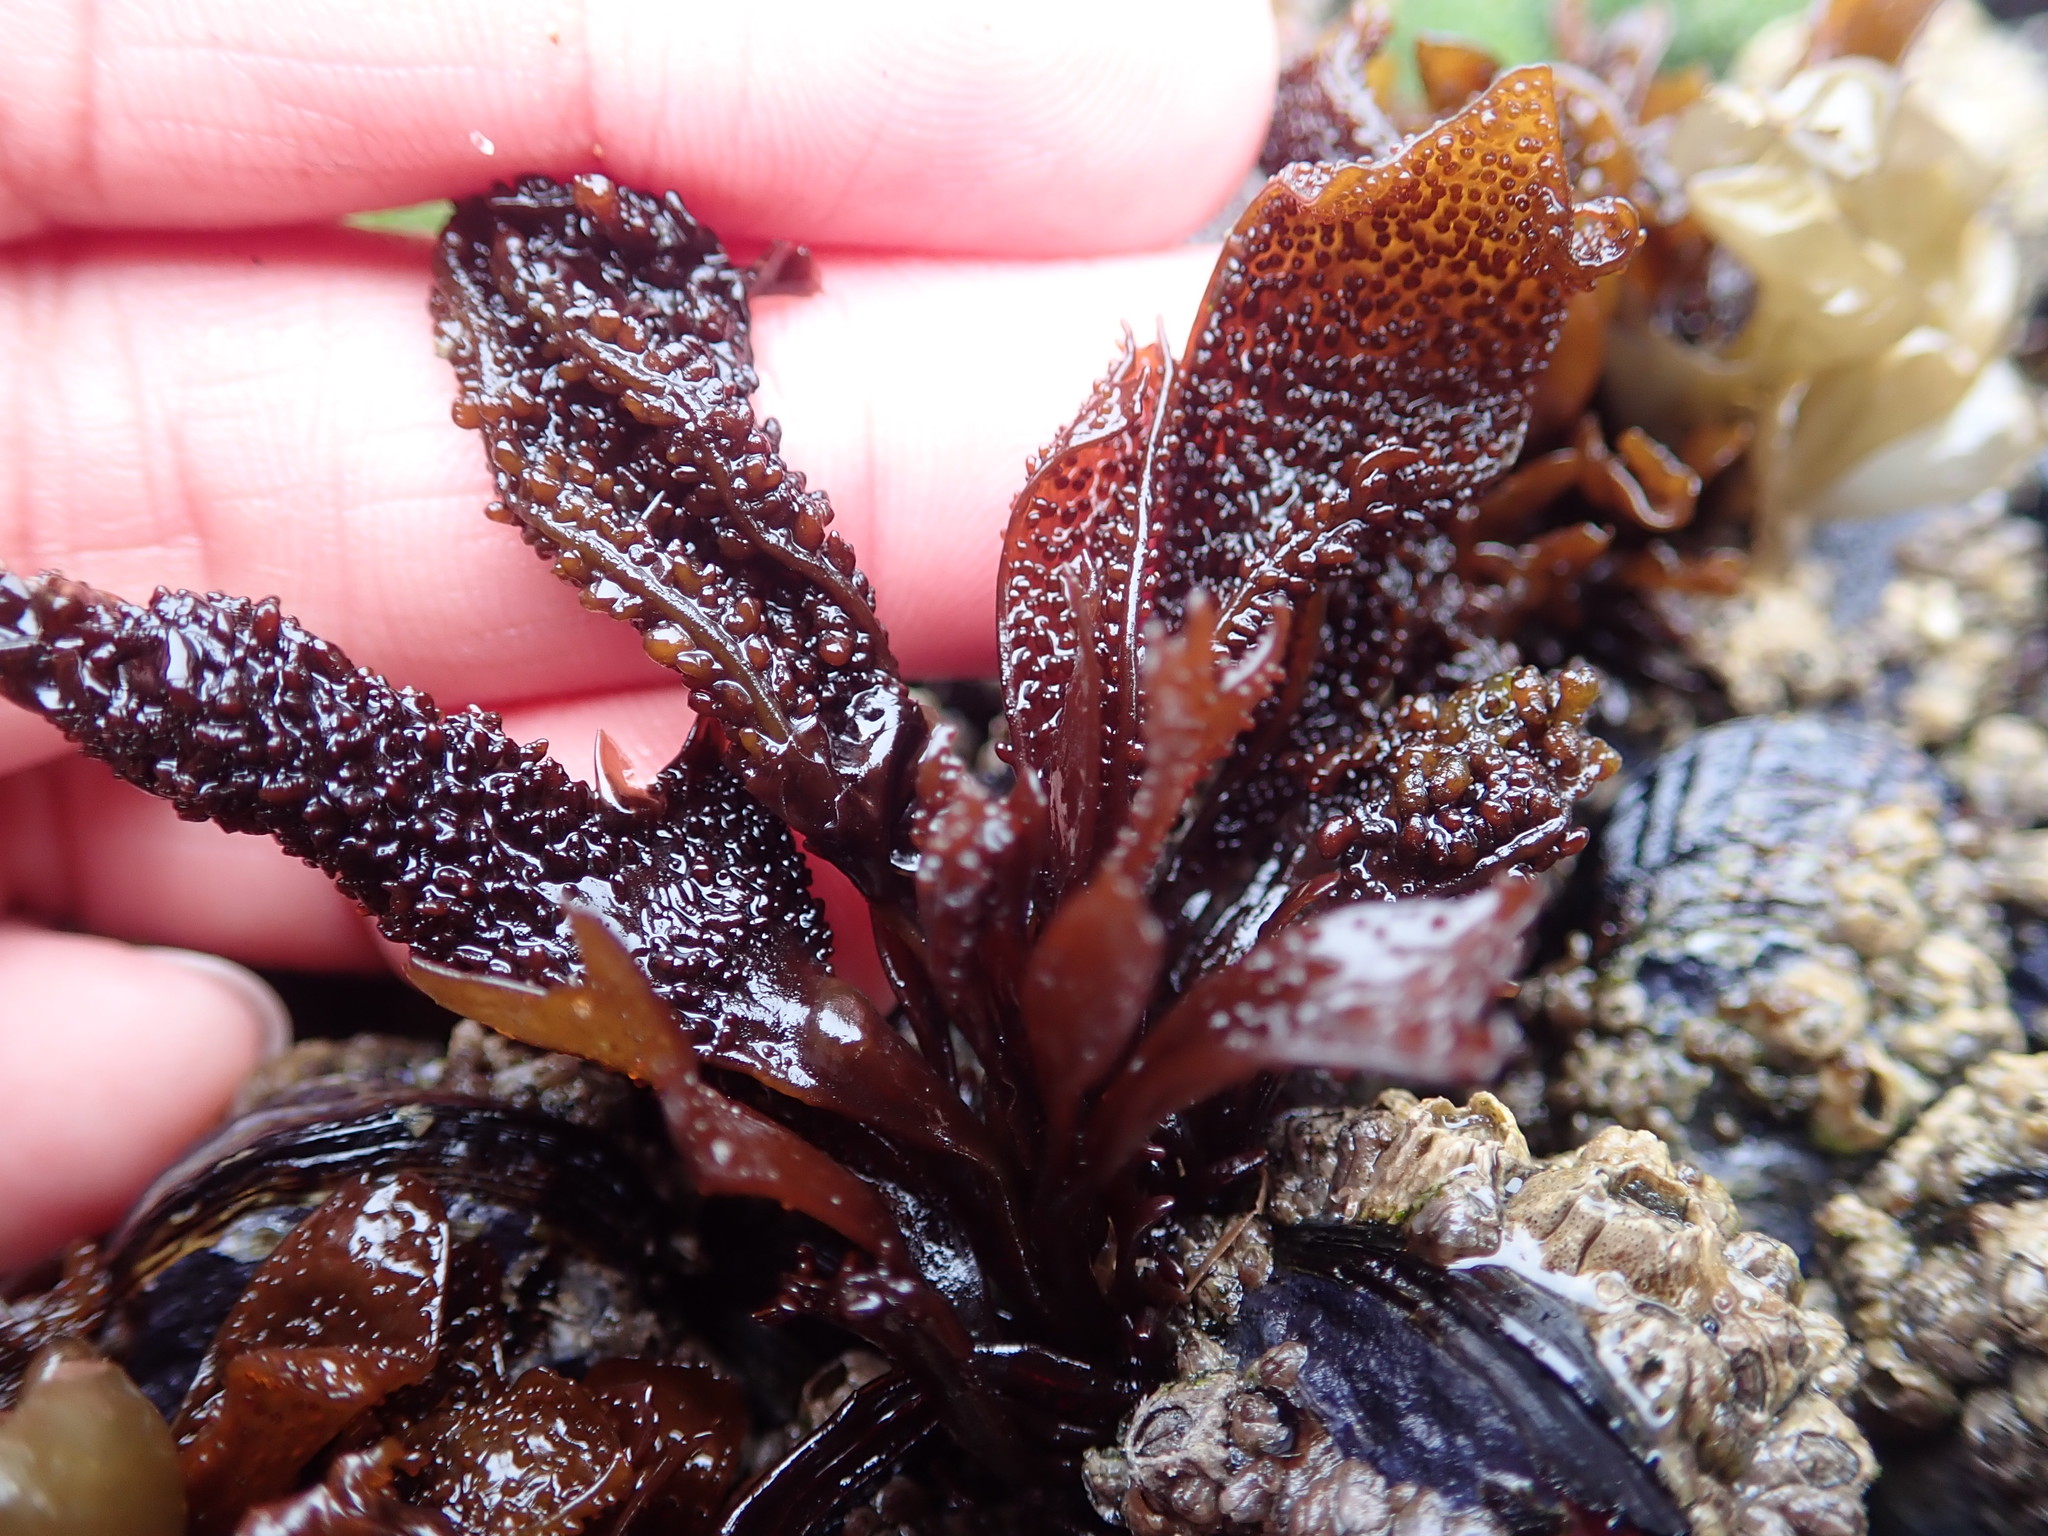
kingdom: Plantae
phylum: Rhodophyta
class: Florideophyceae
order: Gigartinales
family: Phyllophoraceae
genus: Mastocarpus
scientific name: Mastocarpus papillatus
